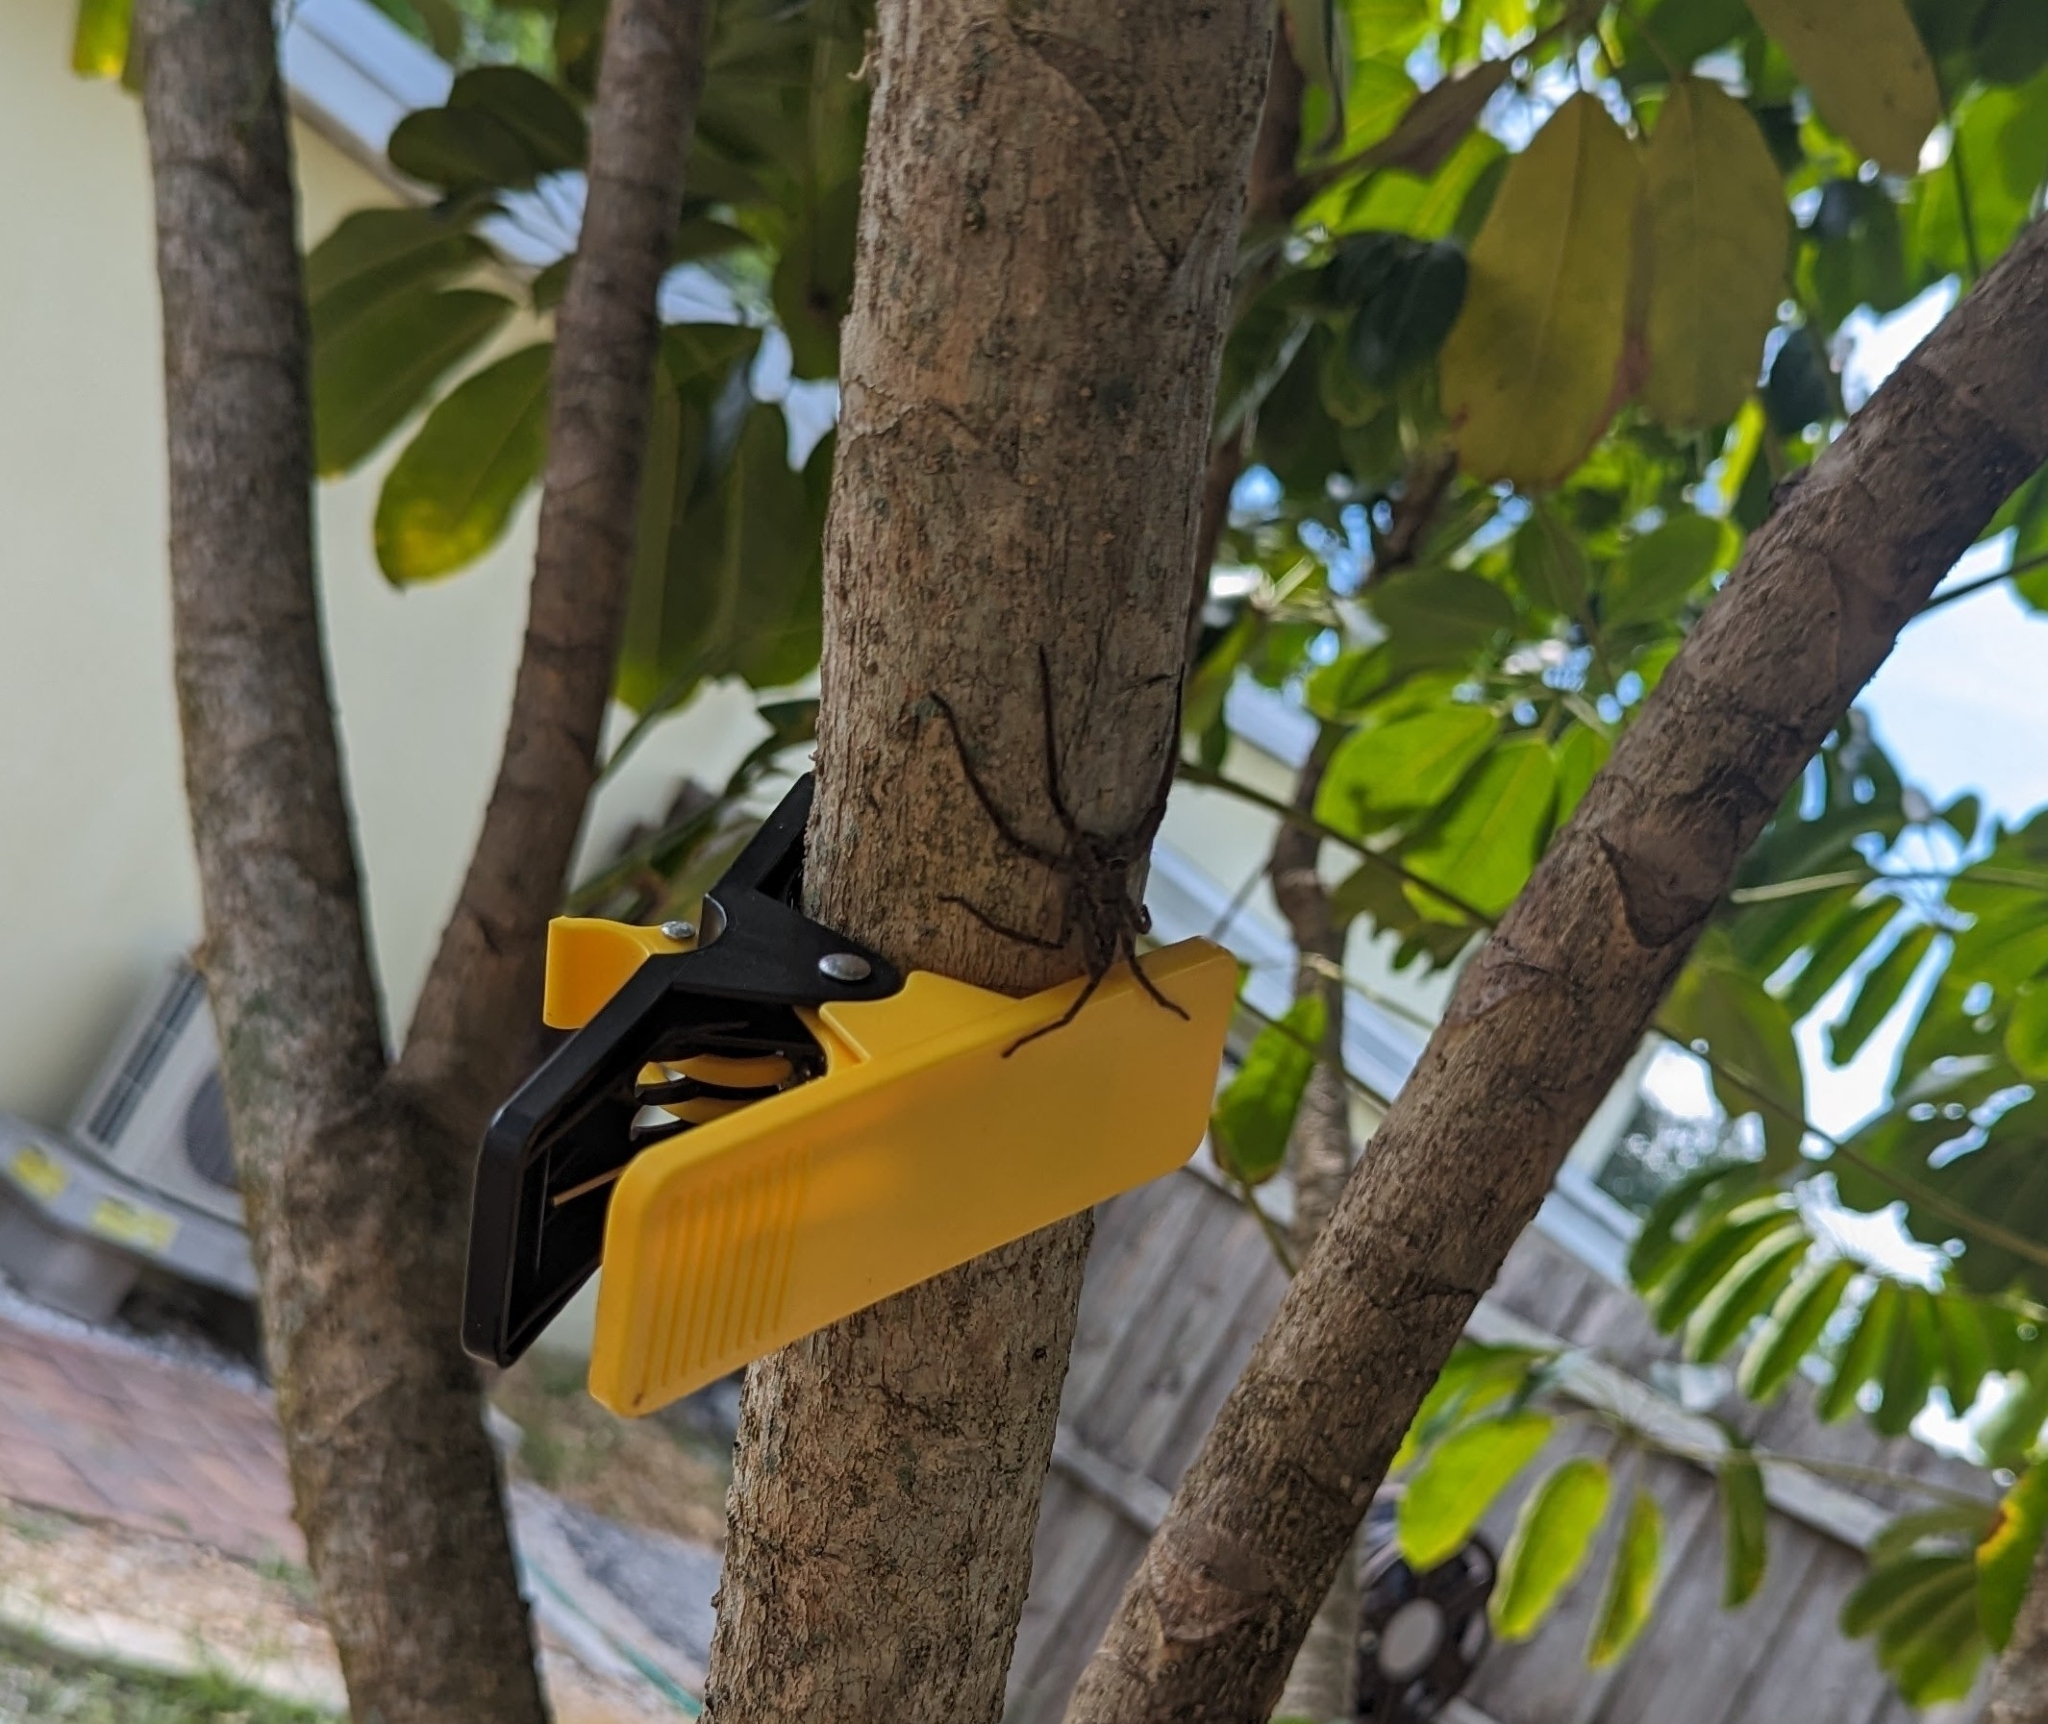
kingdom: Animalia
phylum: Arthropoda
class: Arachnida
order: Araneae
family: Sparassidae
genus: Heteropoda
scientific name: Heteropoda venatoria
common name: Huntsman spider
